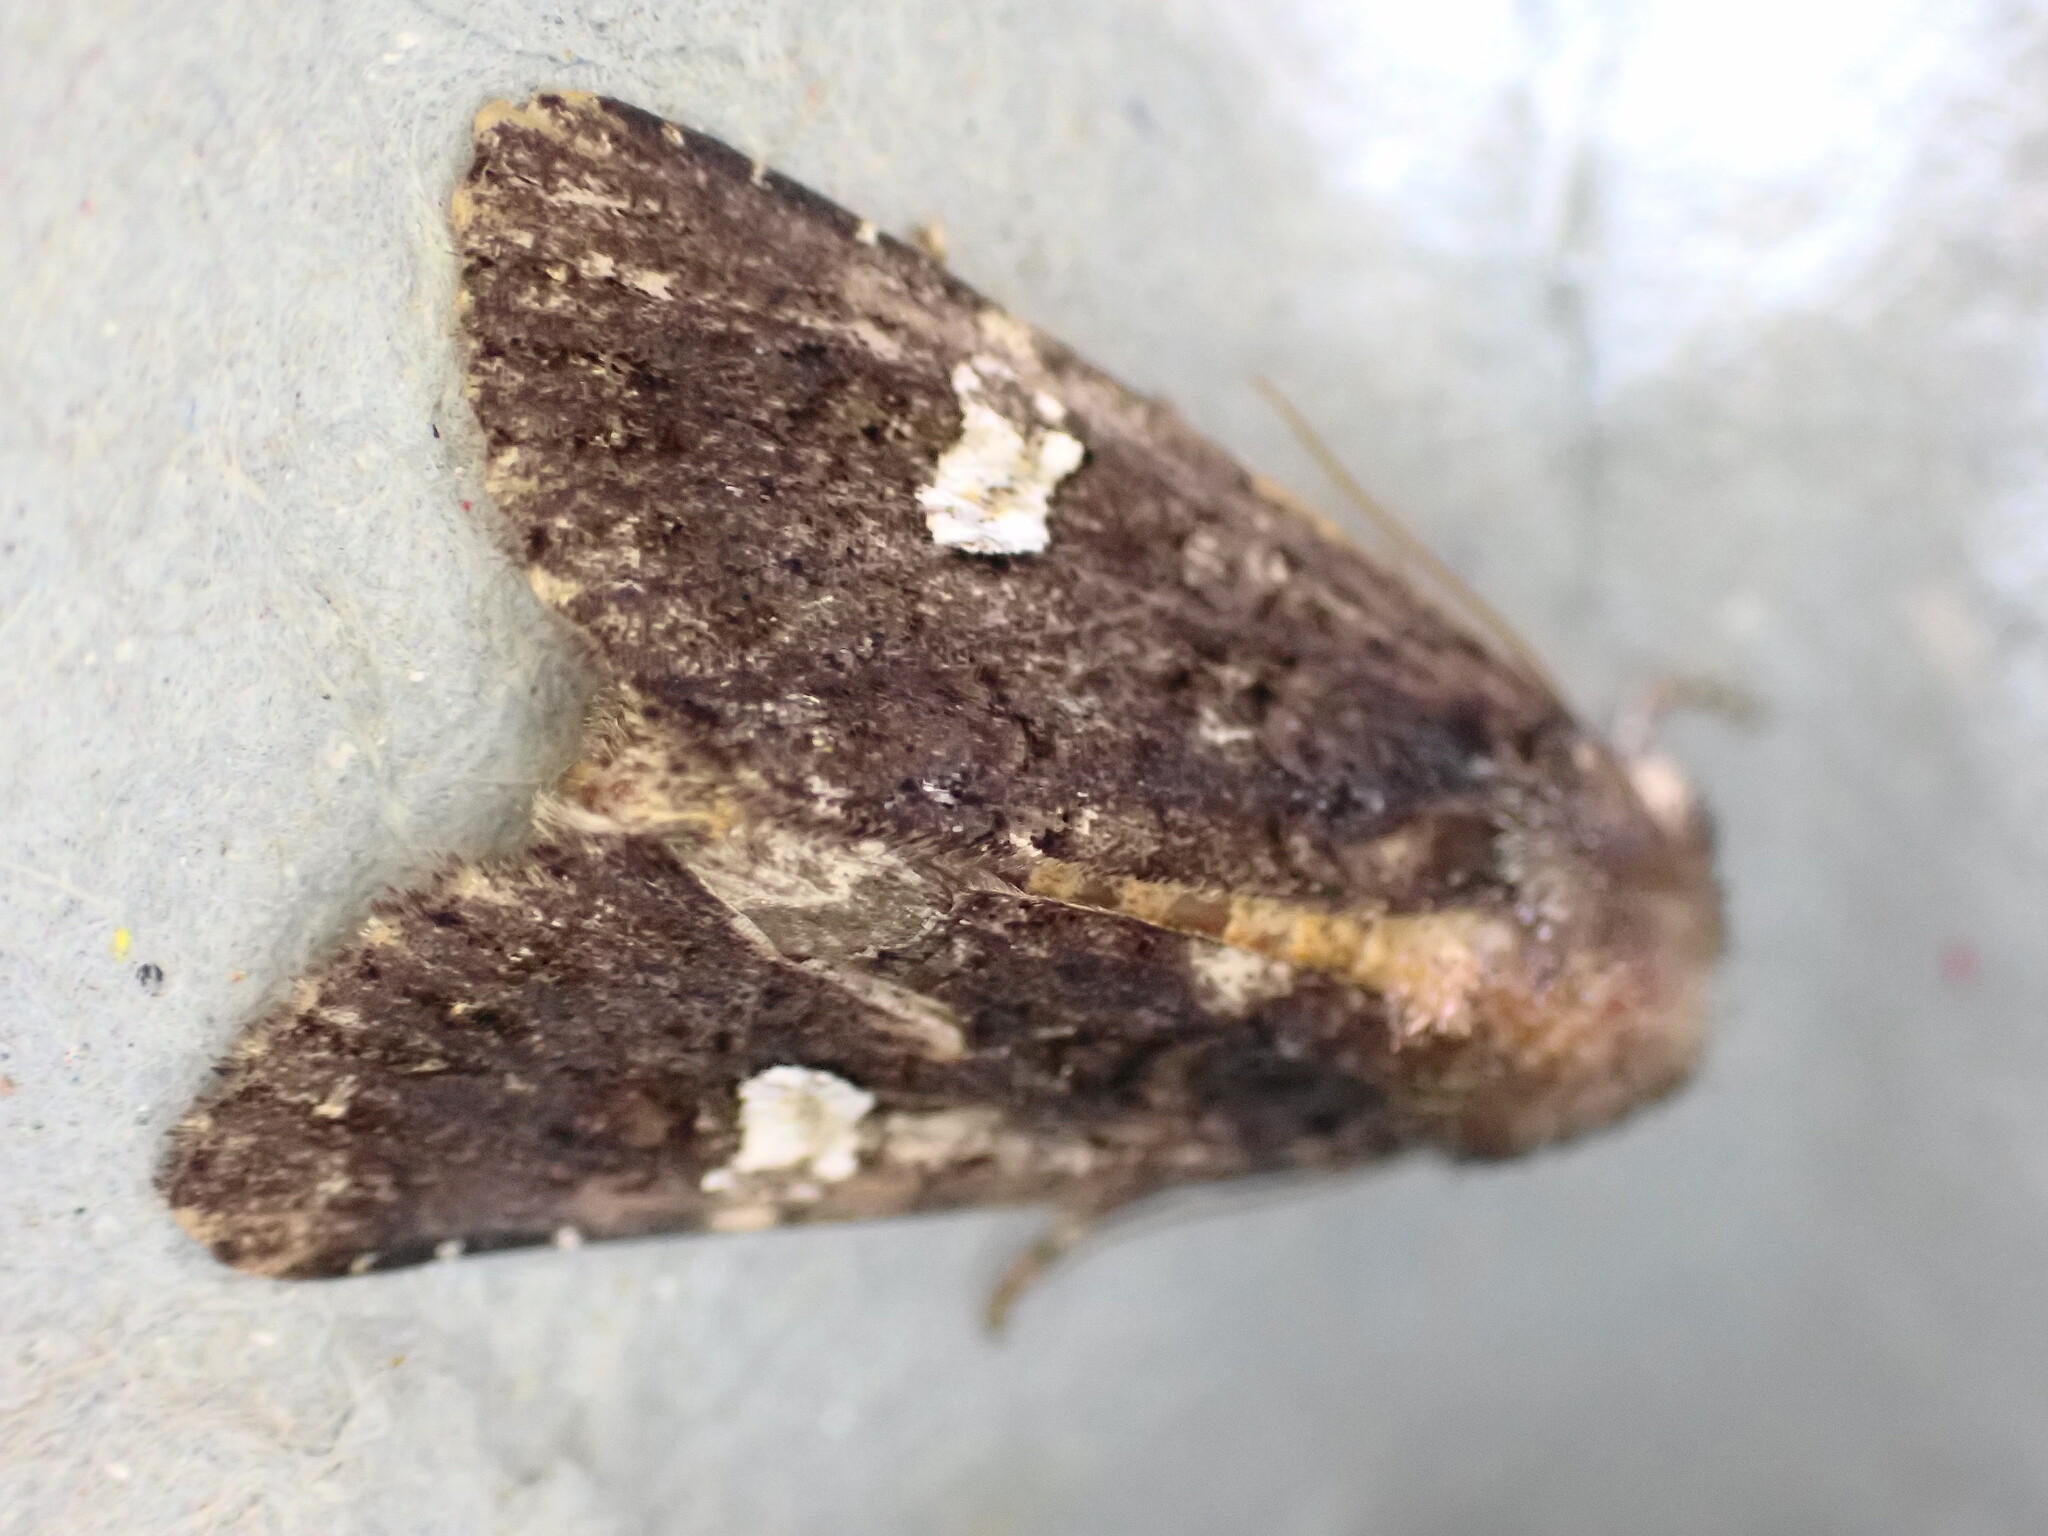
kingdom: Animalia
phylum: Arthropoda
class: Insecta
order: Lepidoptera
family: Noctuidae
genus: Melanchra
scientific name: Melanchra persicariae
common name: Dot moth
